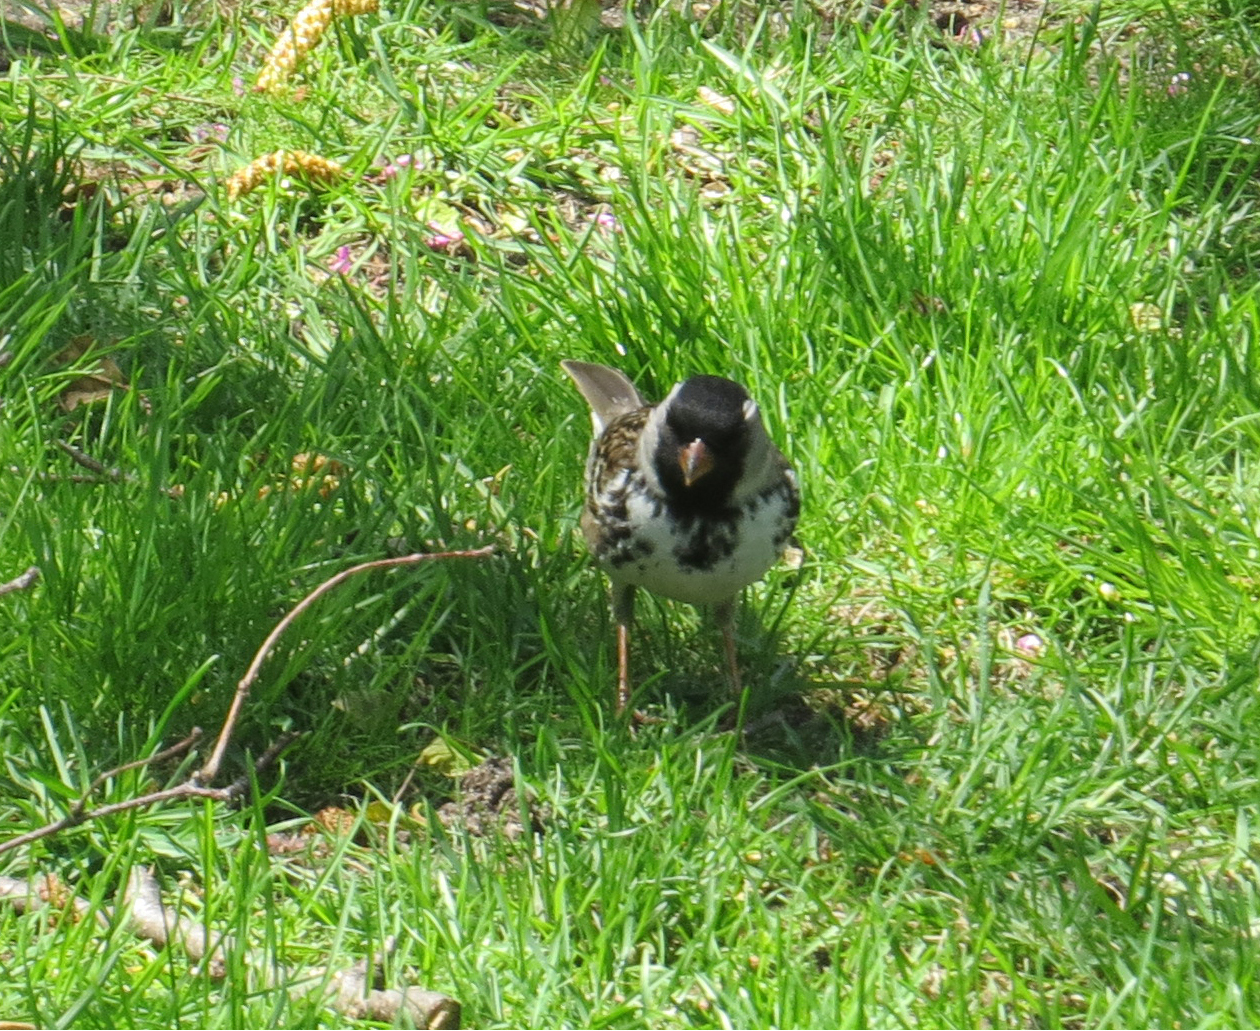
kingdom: Animalia
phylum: Chordata
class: Aves
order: Passeriformes
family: Passerellidae
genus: Zonotrichia
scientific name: Zonotrichia querula
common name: Harris's sparrow
